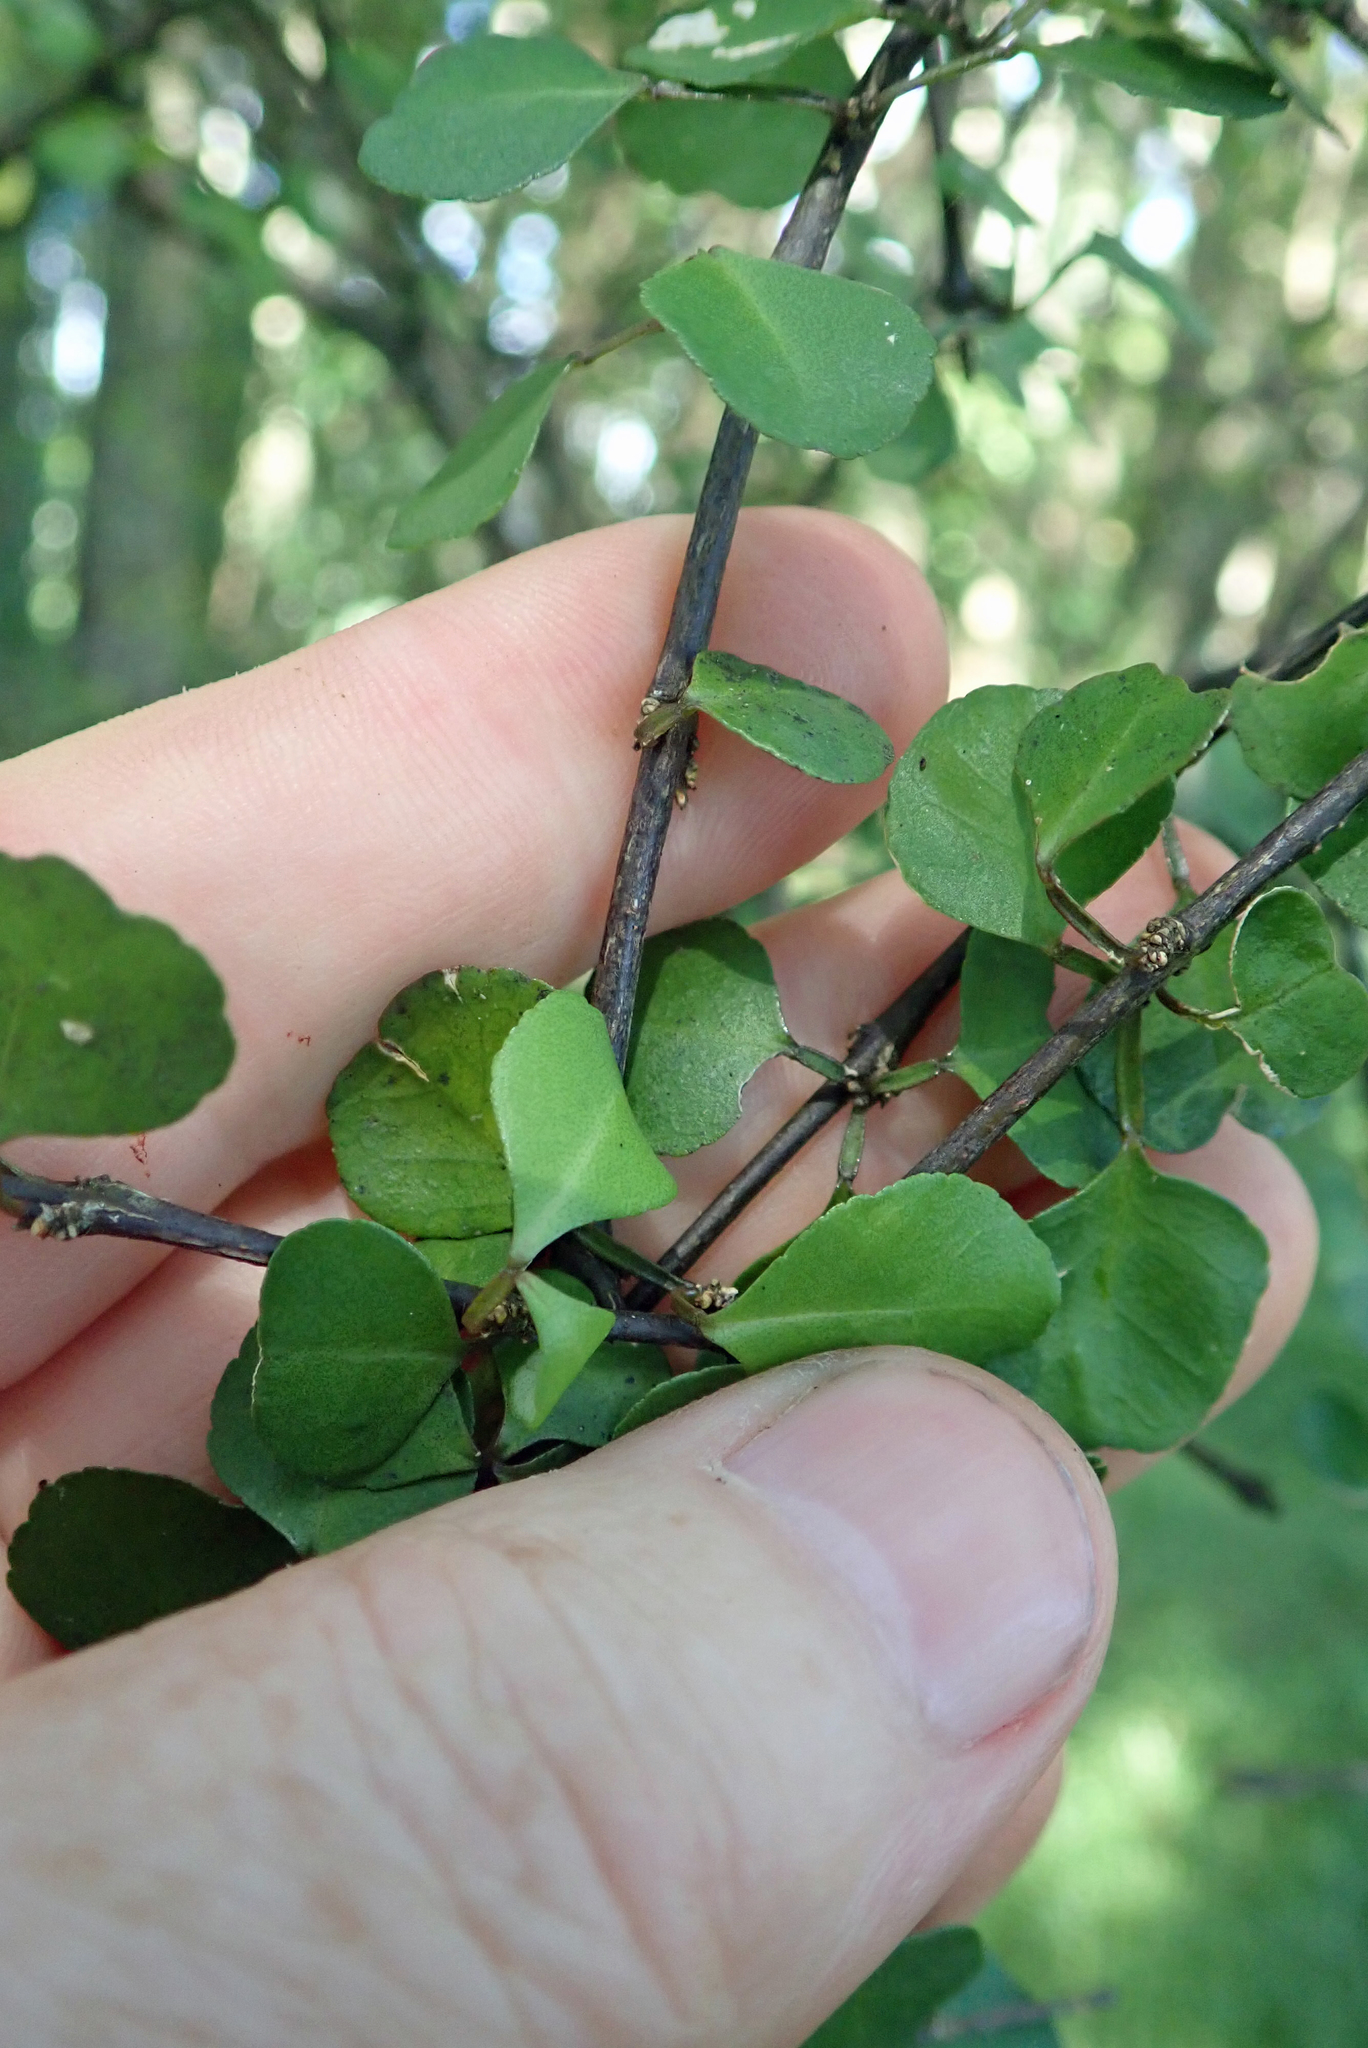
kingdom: Plantae
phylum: Tracheophyta
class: Magnoliopsida
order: Sapindales
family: Rutaceae
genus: Melicope
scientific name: Melicope simplex
